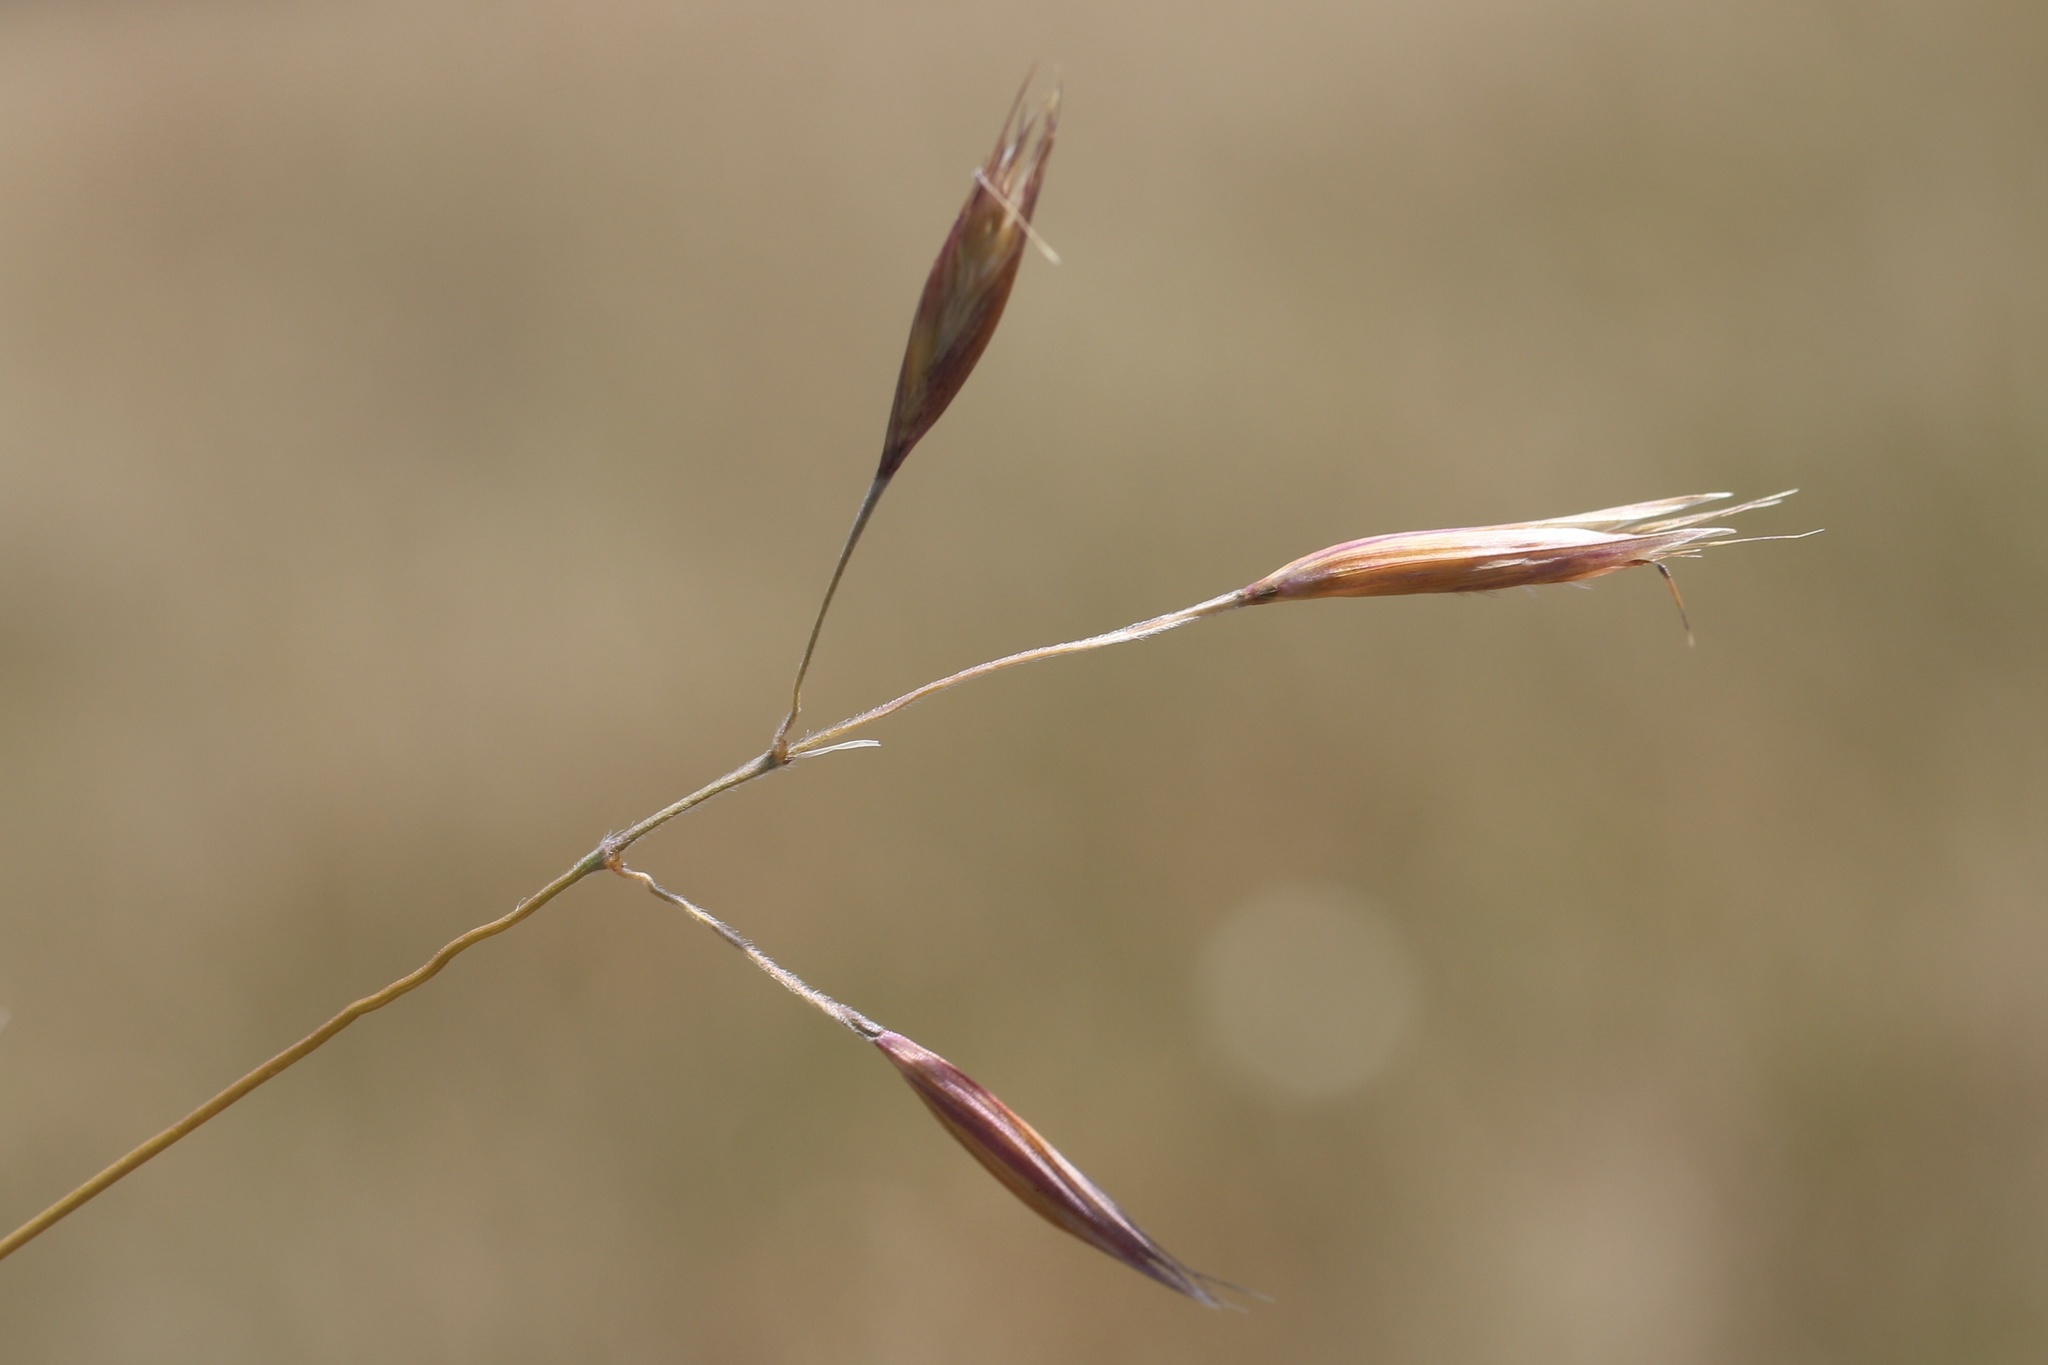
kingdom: Plantae
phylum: Tracheophyta
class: Liliopsida
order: Poales
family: Poaceae
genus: Danthonia
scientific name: Danthonia californica
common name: California oat grass
